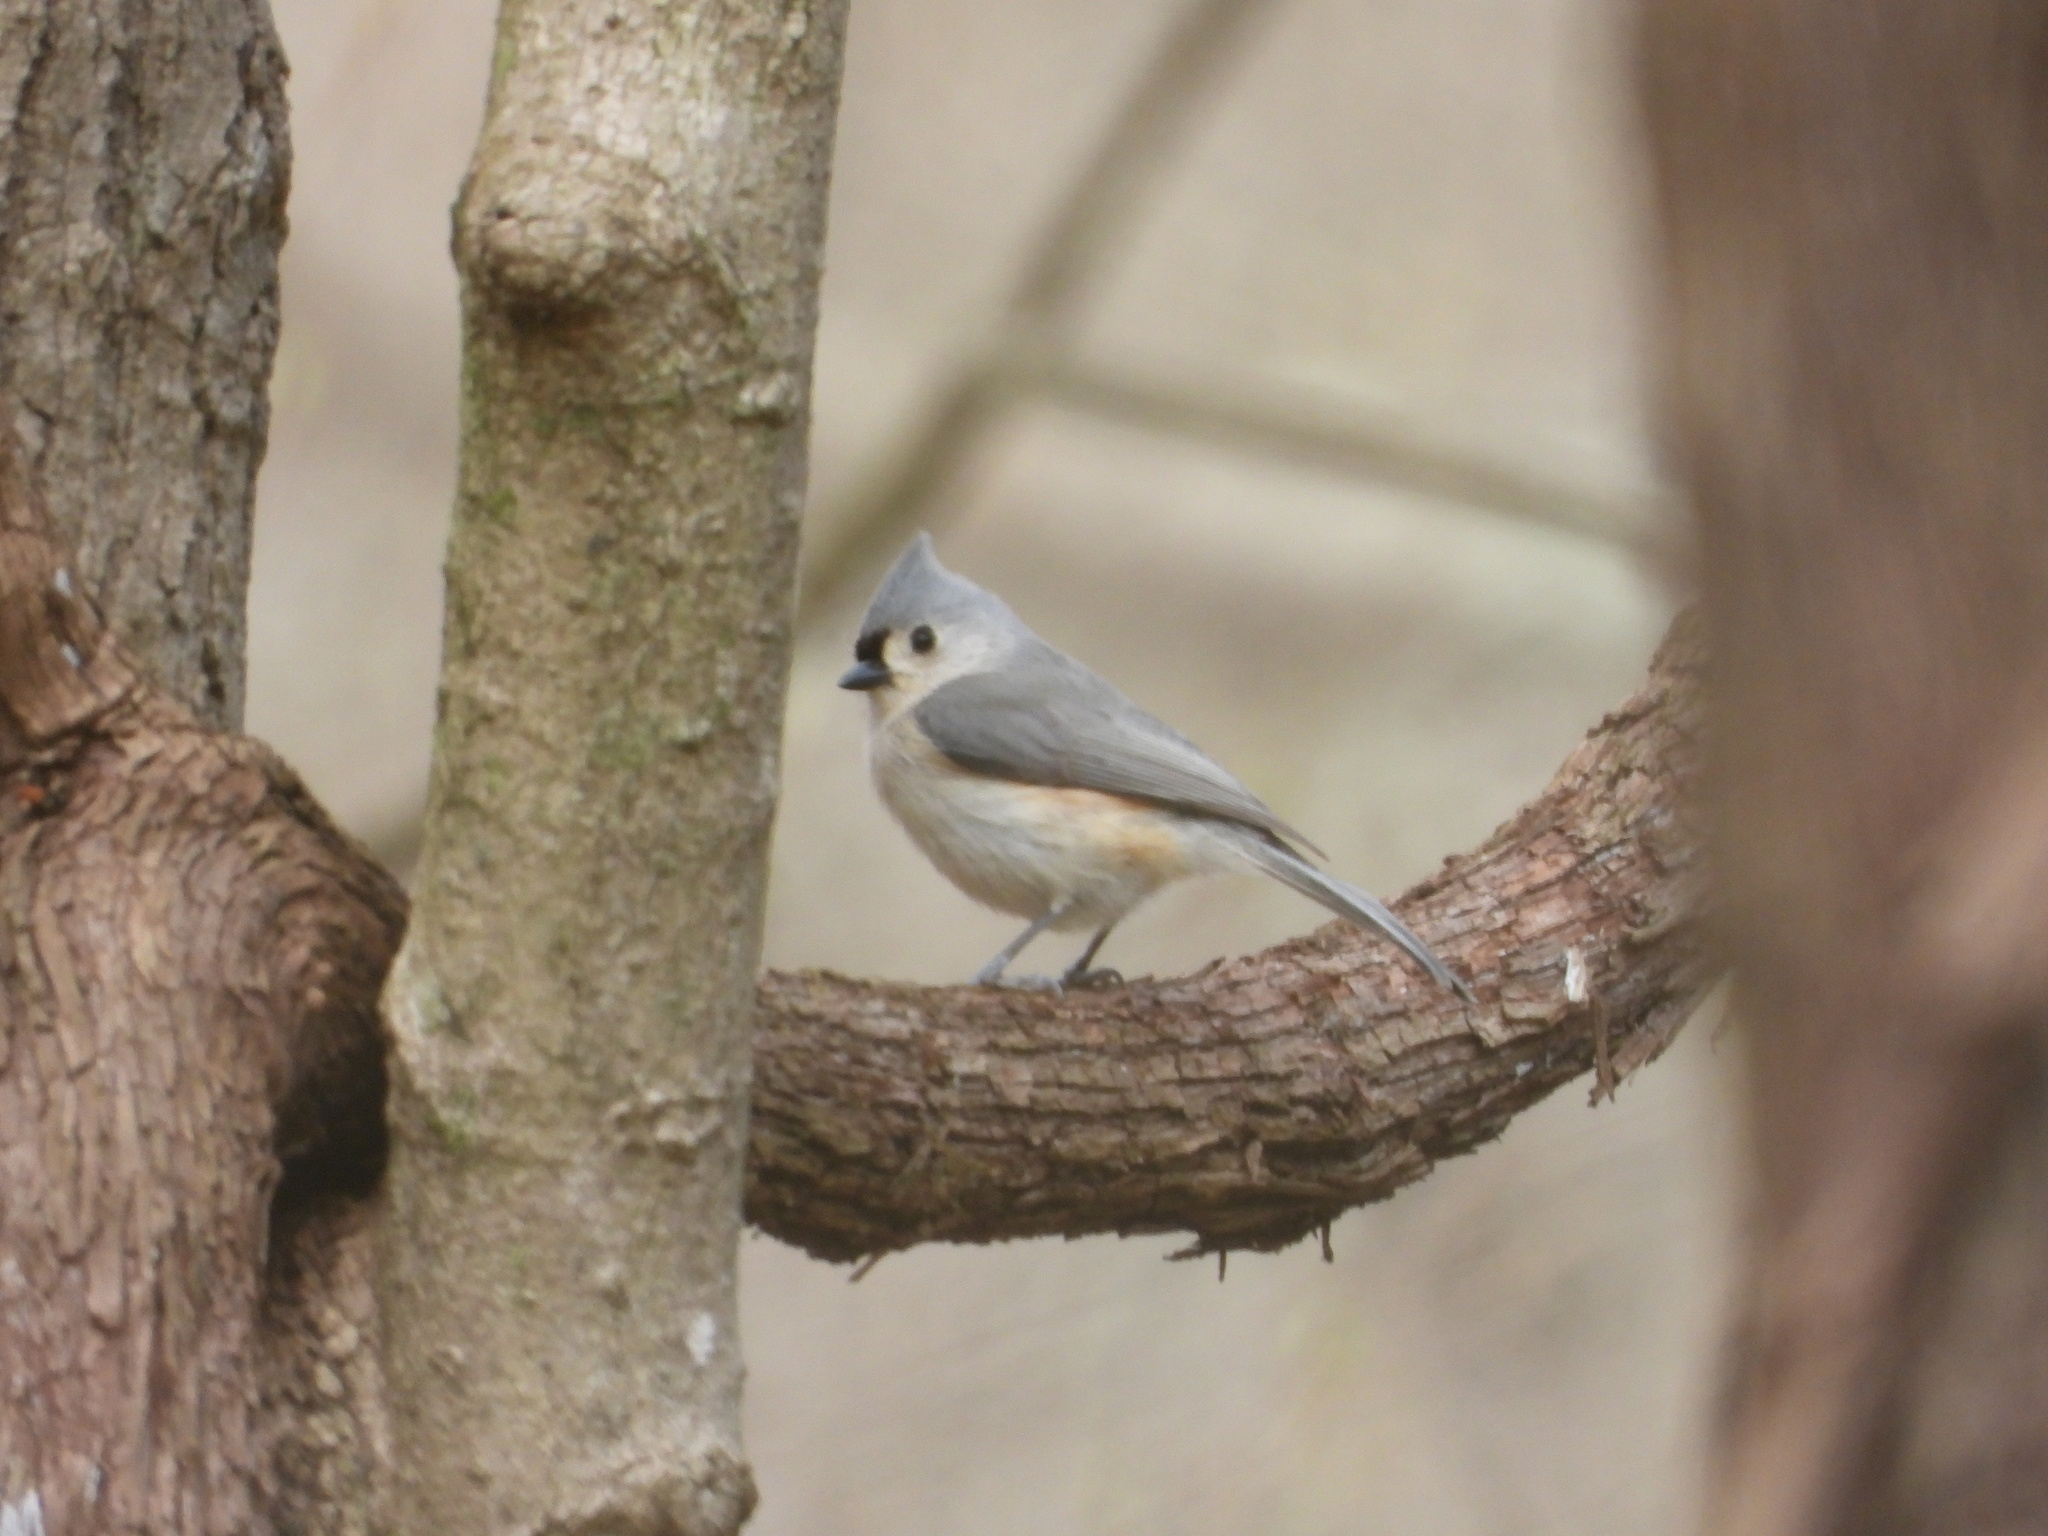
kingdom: Animalia
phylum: Chordata
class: Aves
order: Passeriformes
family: Paridae
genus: Baeolophus
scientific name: Baeolophus bicolor
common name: Tufted titmouse
